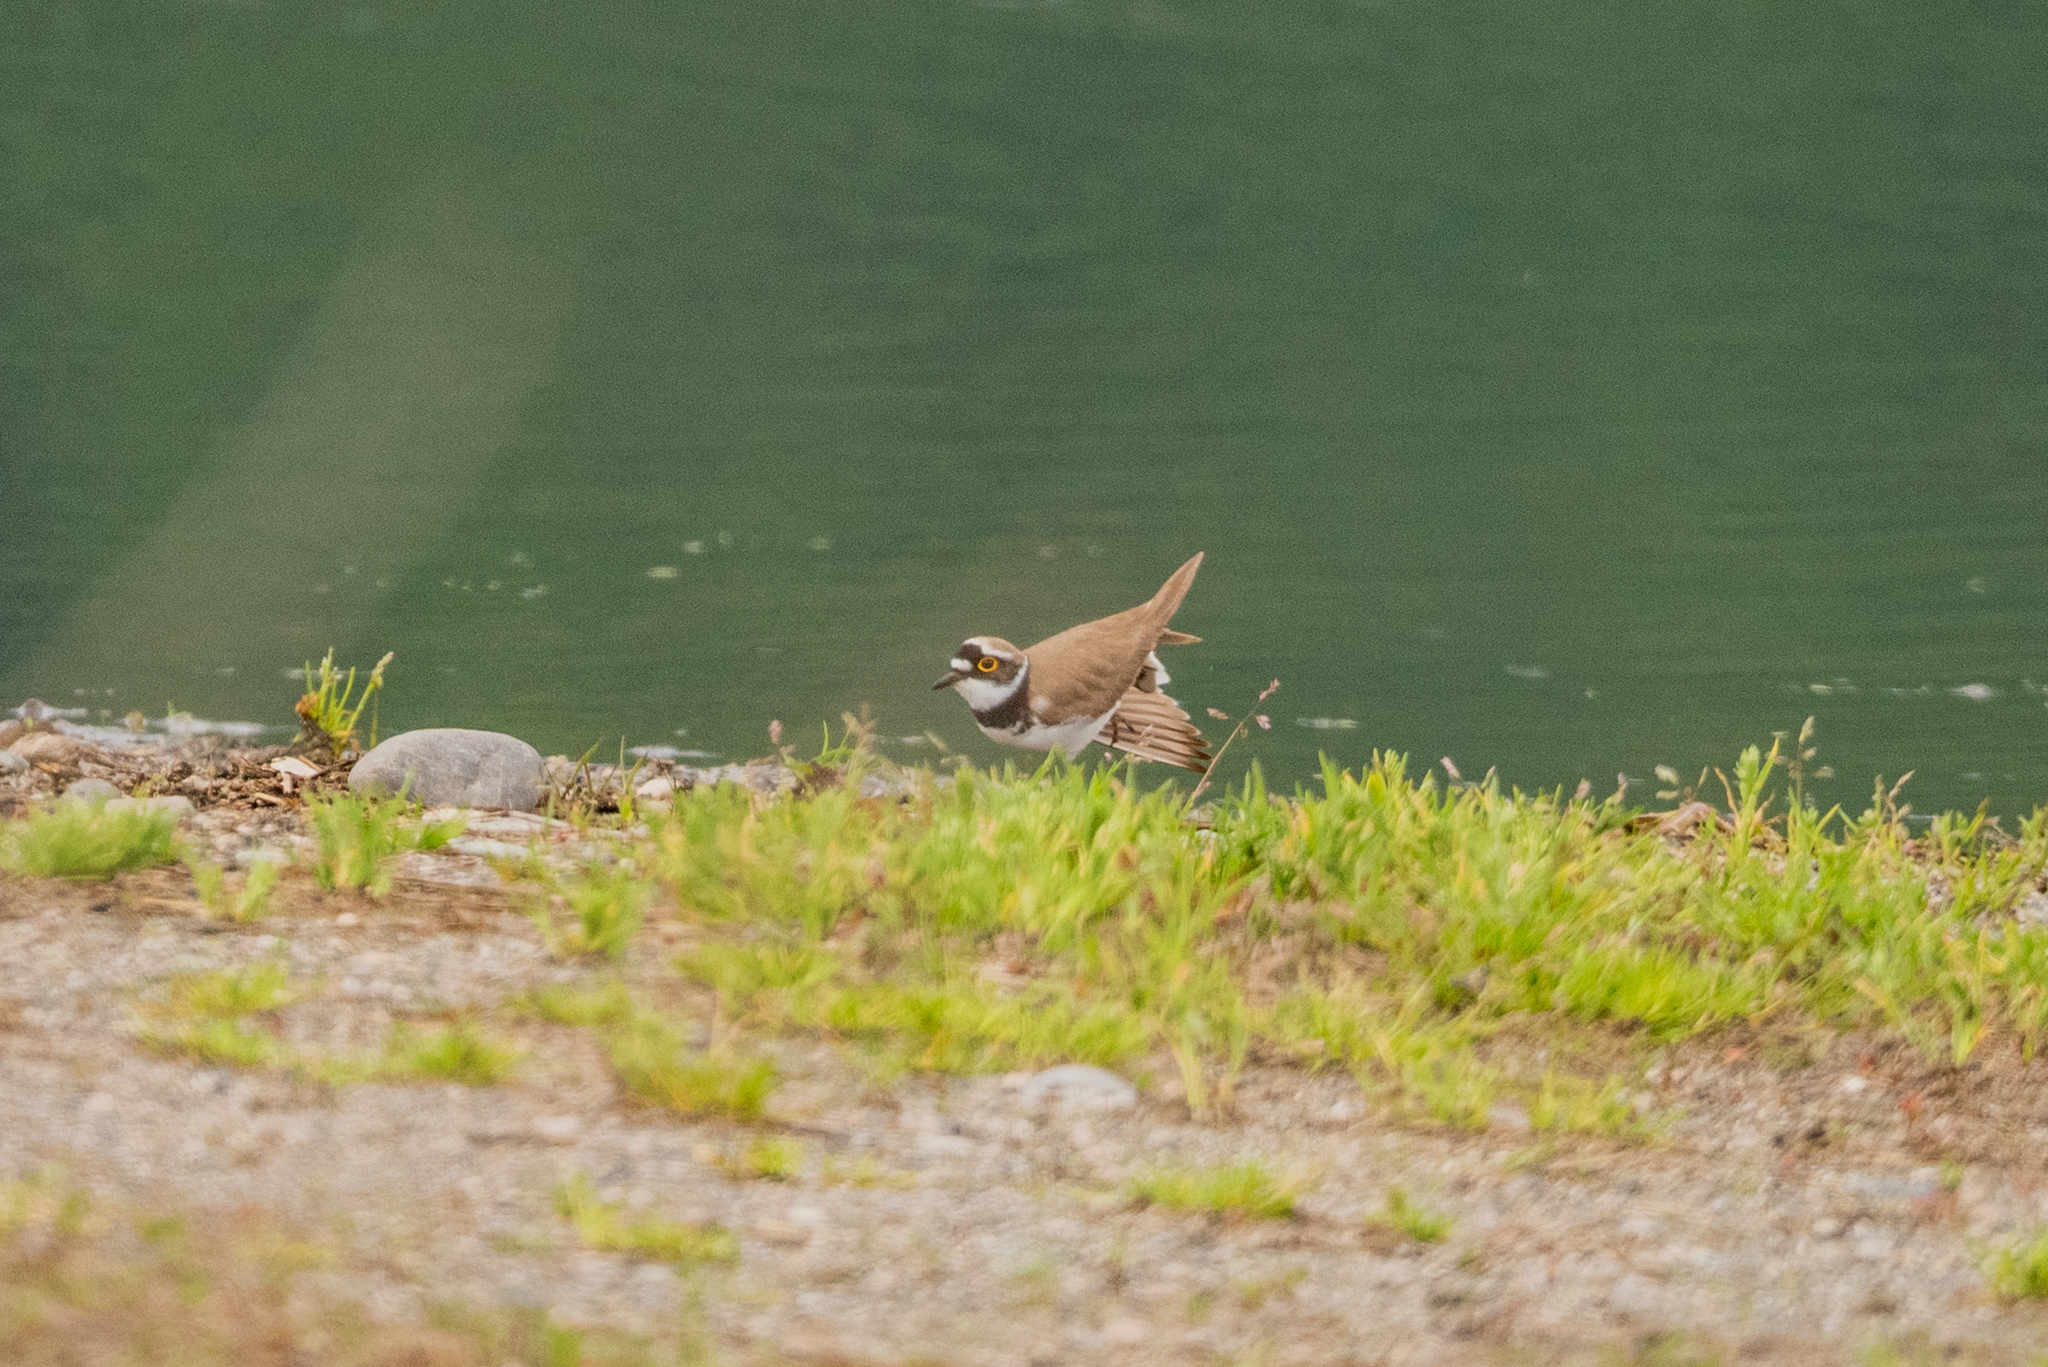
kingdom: Animalia
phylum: Chordata
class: Aves
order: Charadriiformes
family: Charadriidae
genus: Charadrius
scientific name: Charadrius dubius
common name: Little ringed plover
